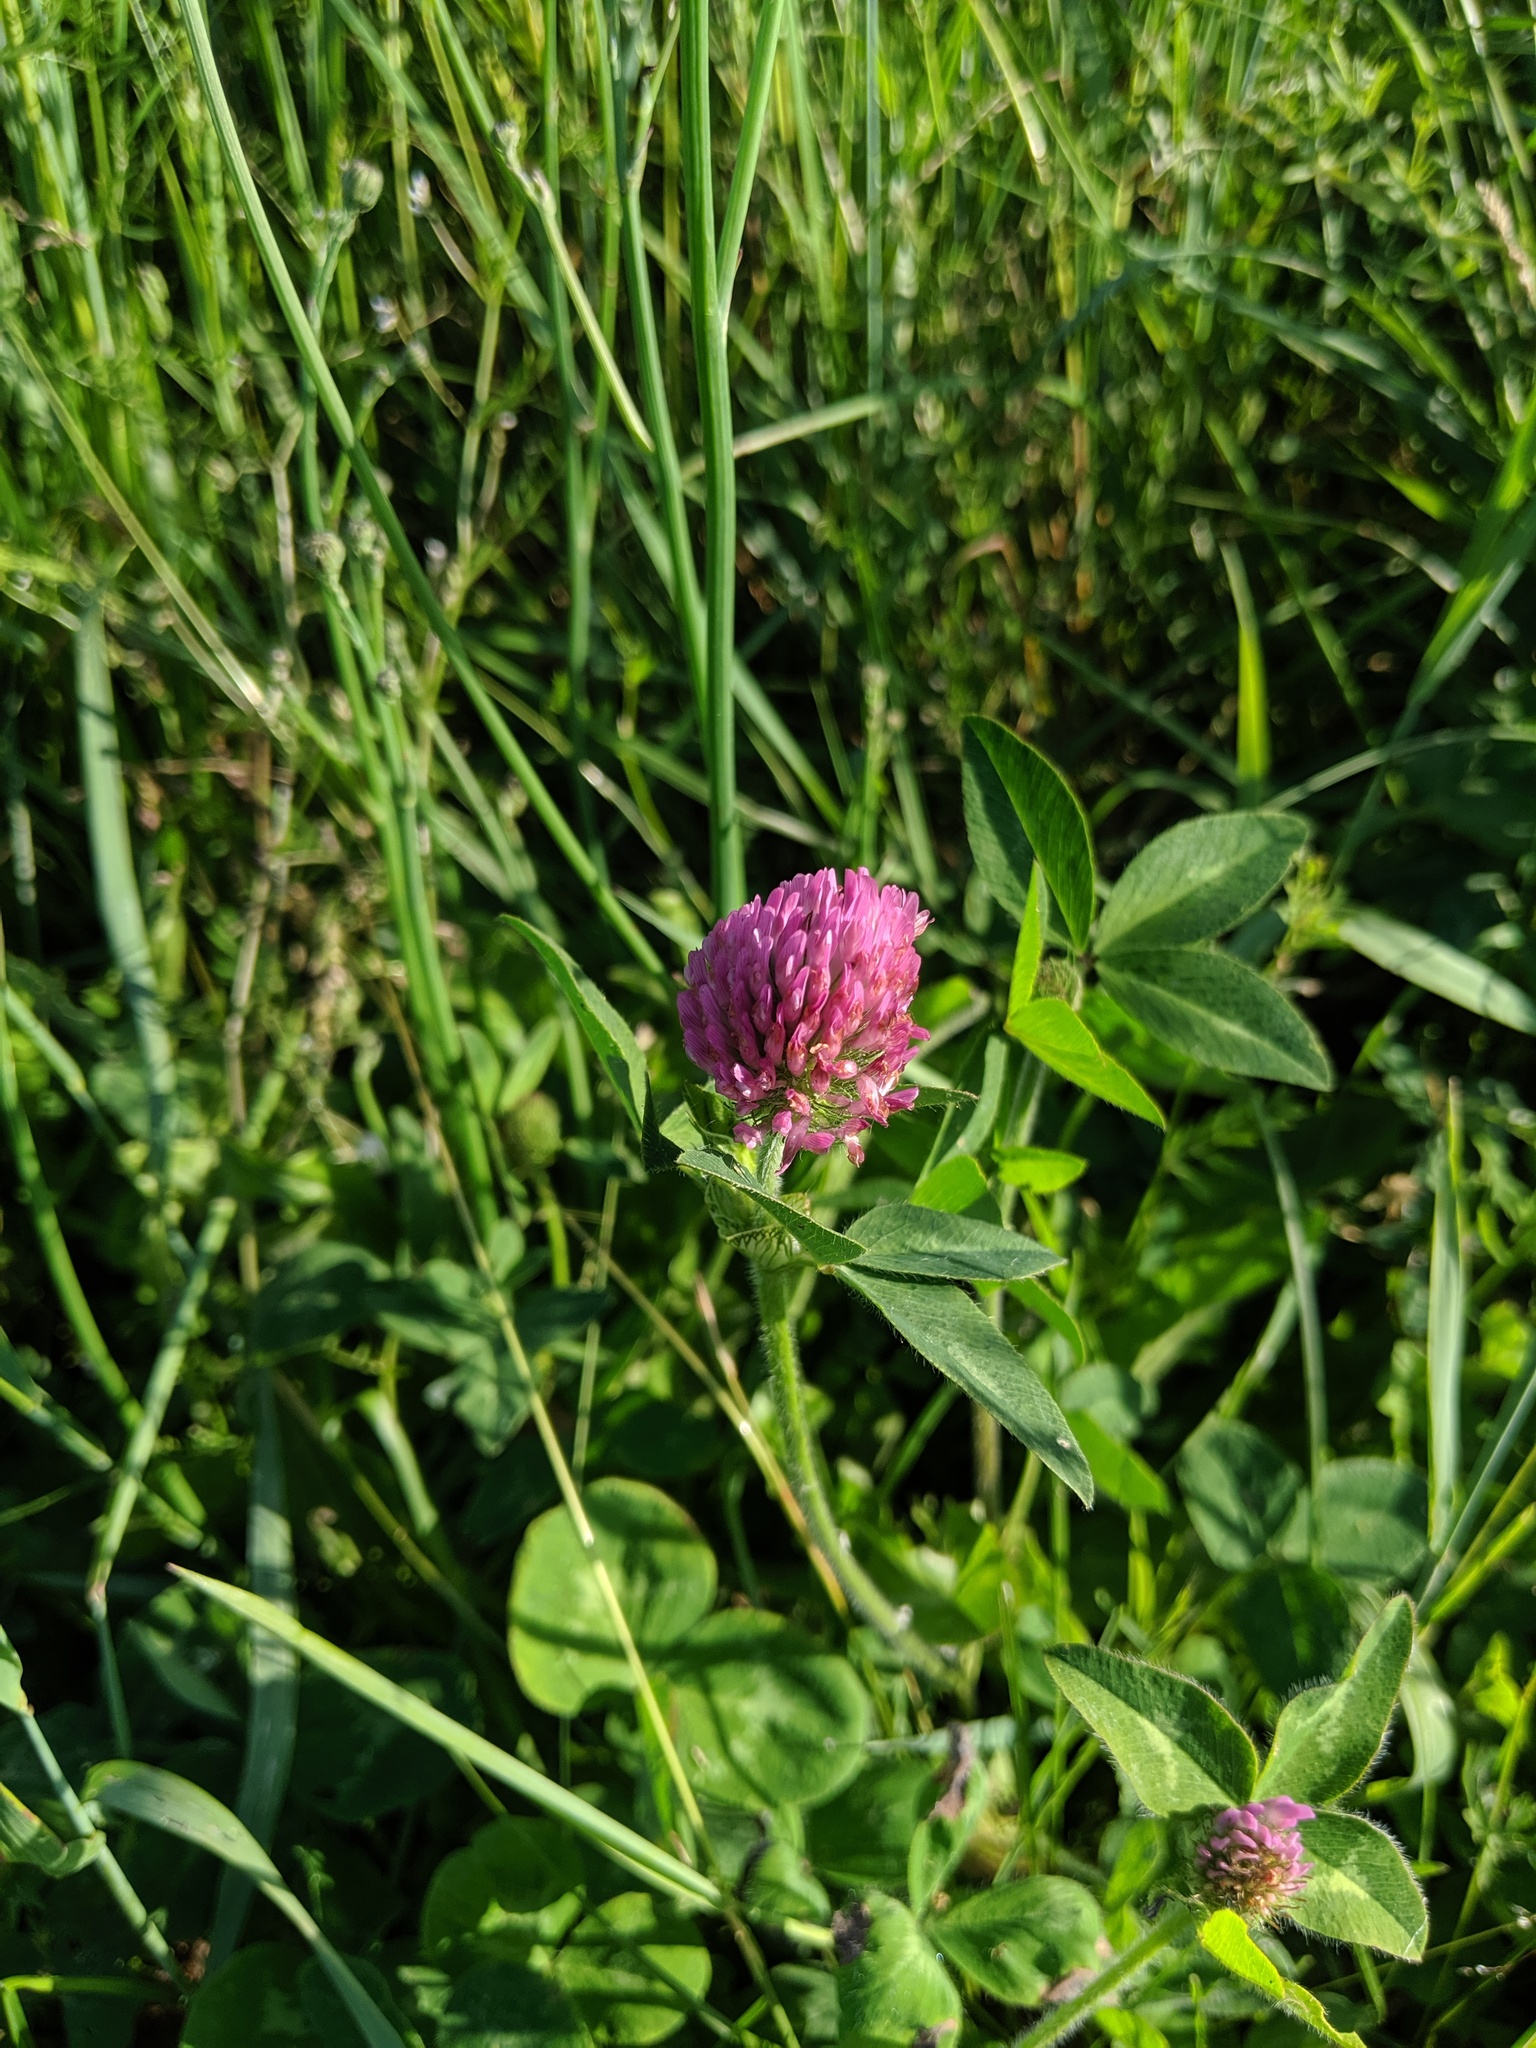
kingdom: Plantae
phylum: Tracheophyta
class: Magnoliopsida
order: Fabales
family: Fabaceae
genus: Trifolium
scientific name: Trifolium pratense
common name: Red clover
